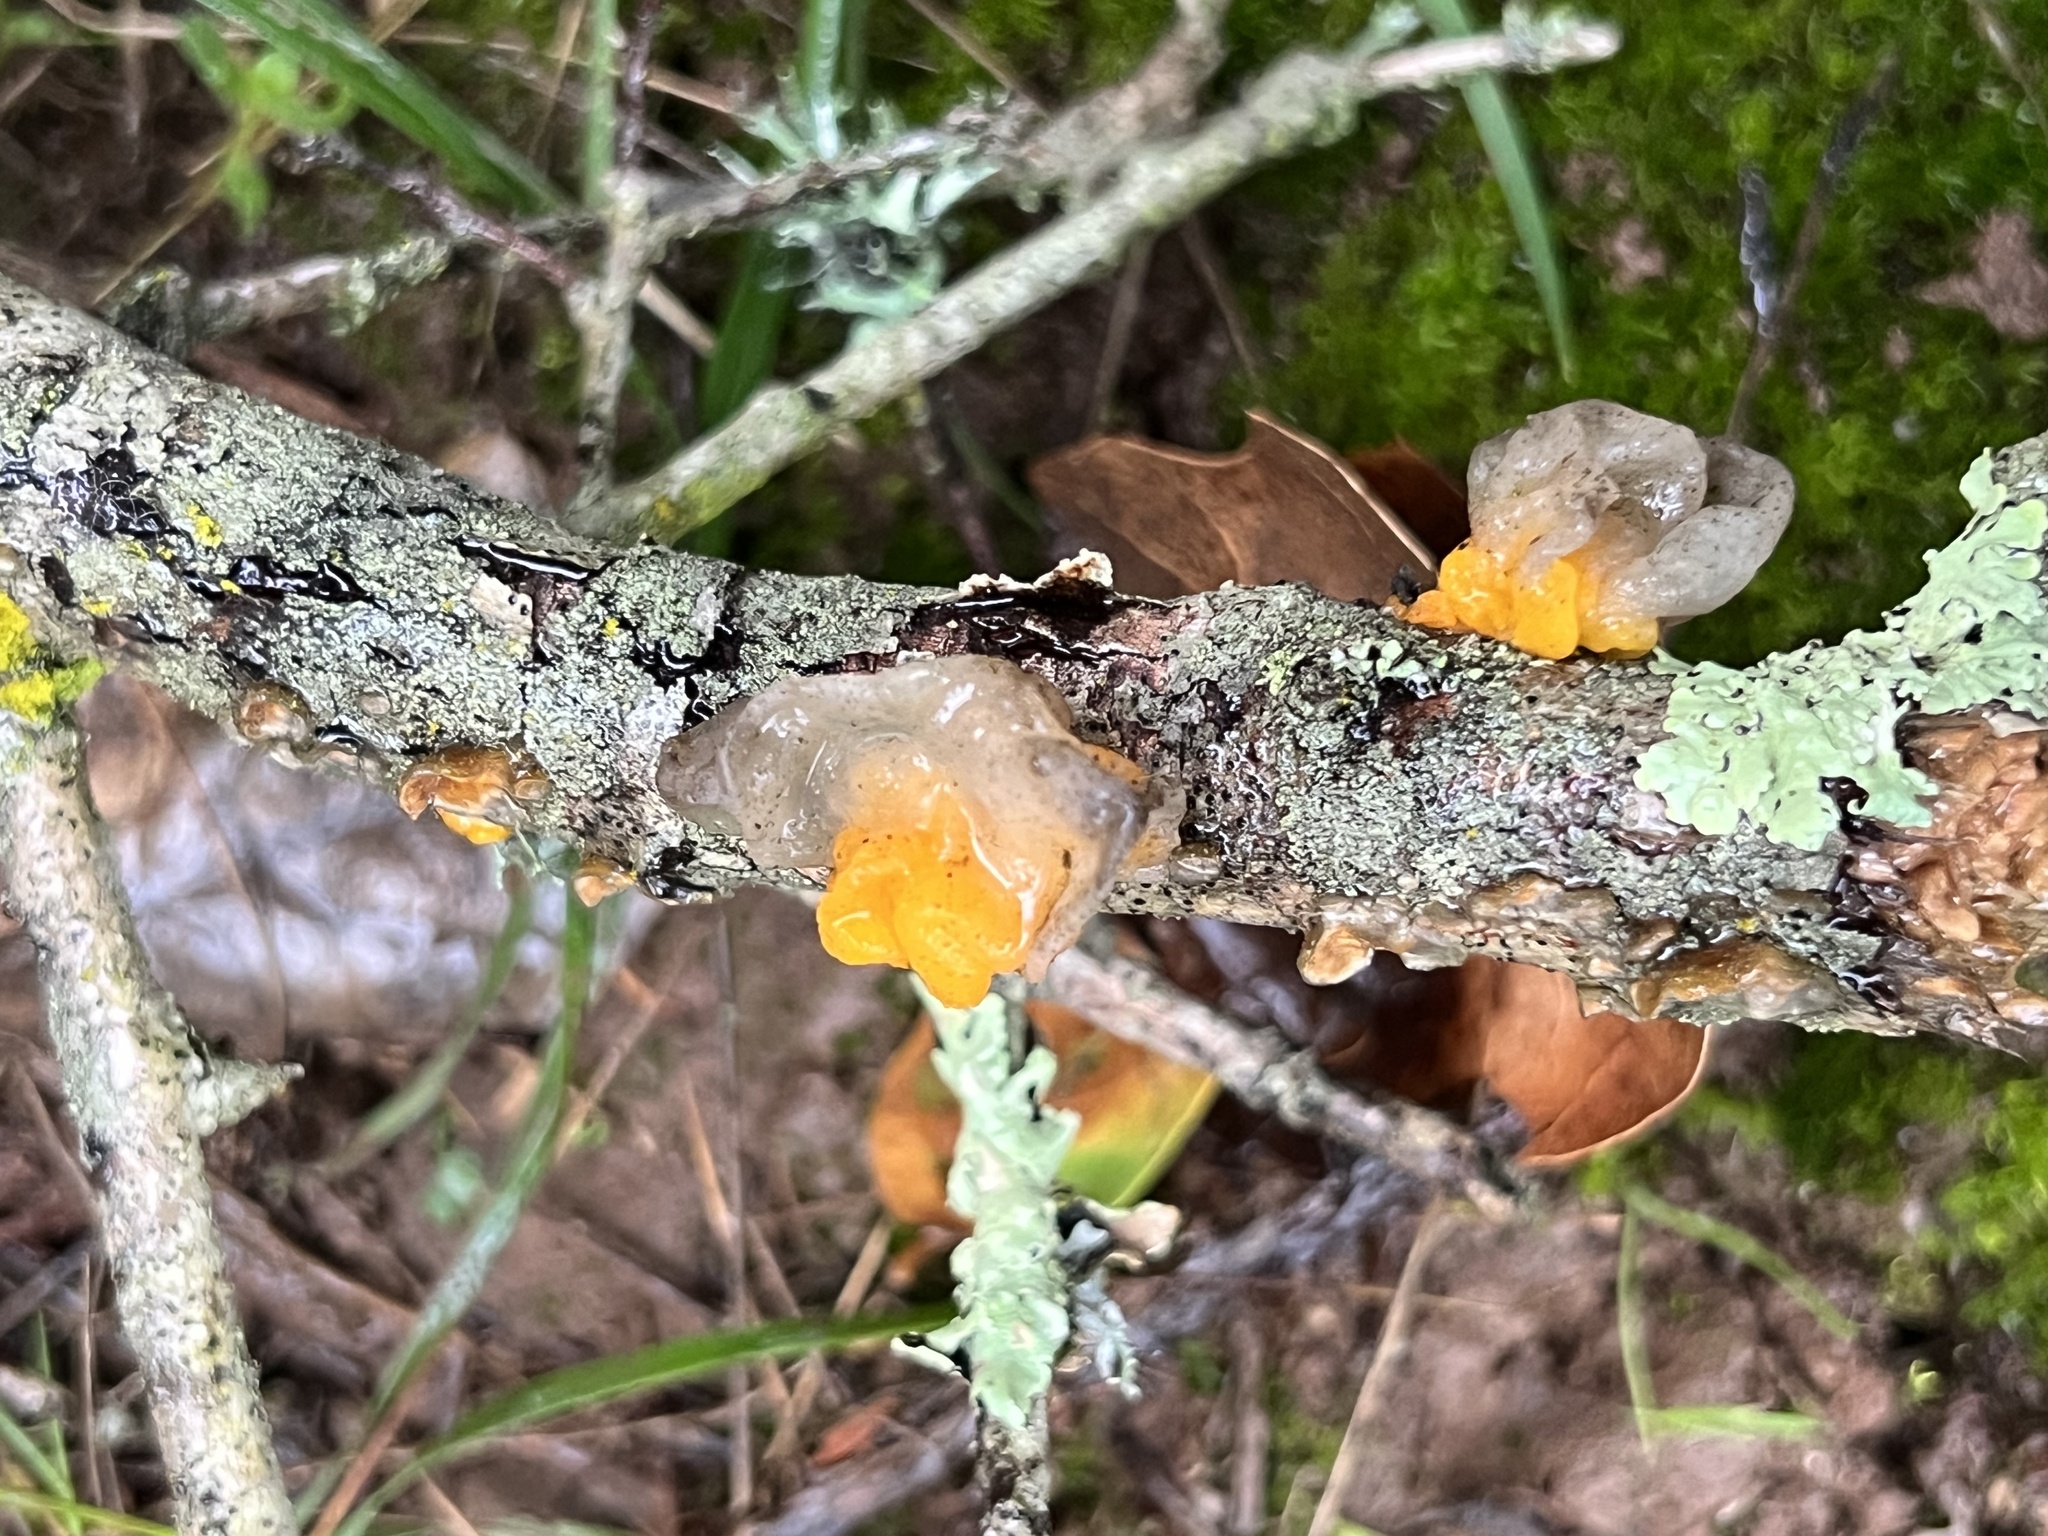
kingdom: Fungi
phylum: Basidiomycota
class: Tremellomycetes
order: Tremellales
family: Naemateliaceae
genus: Naematelia
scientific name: Naematelia aurantia
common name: Golden ear
